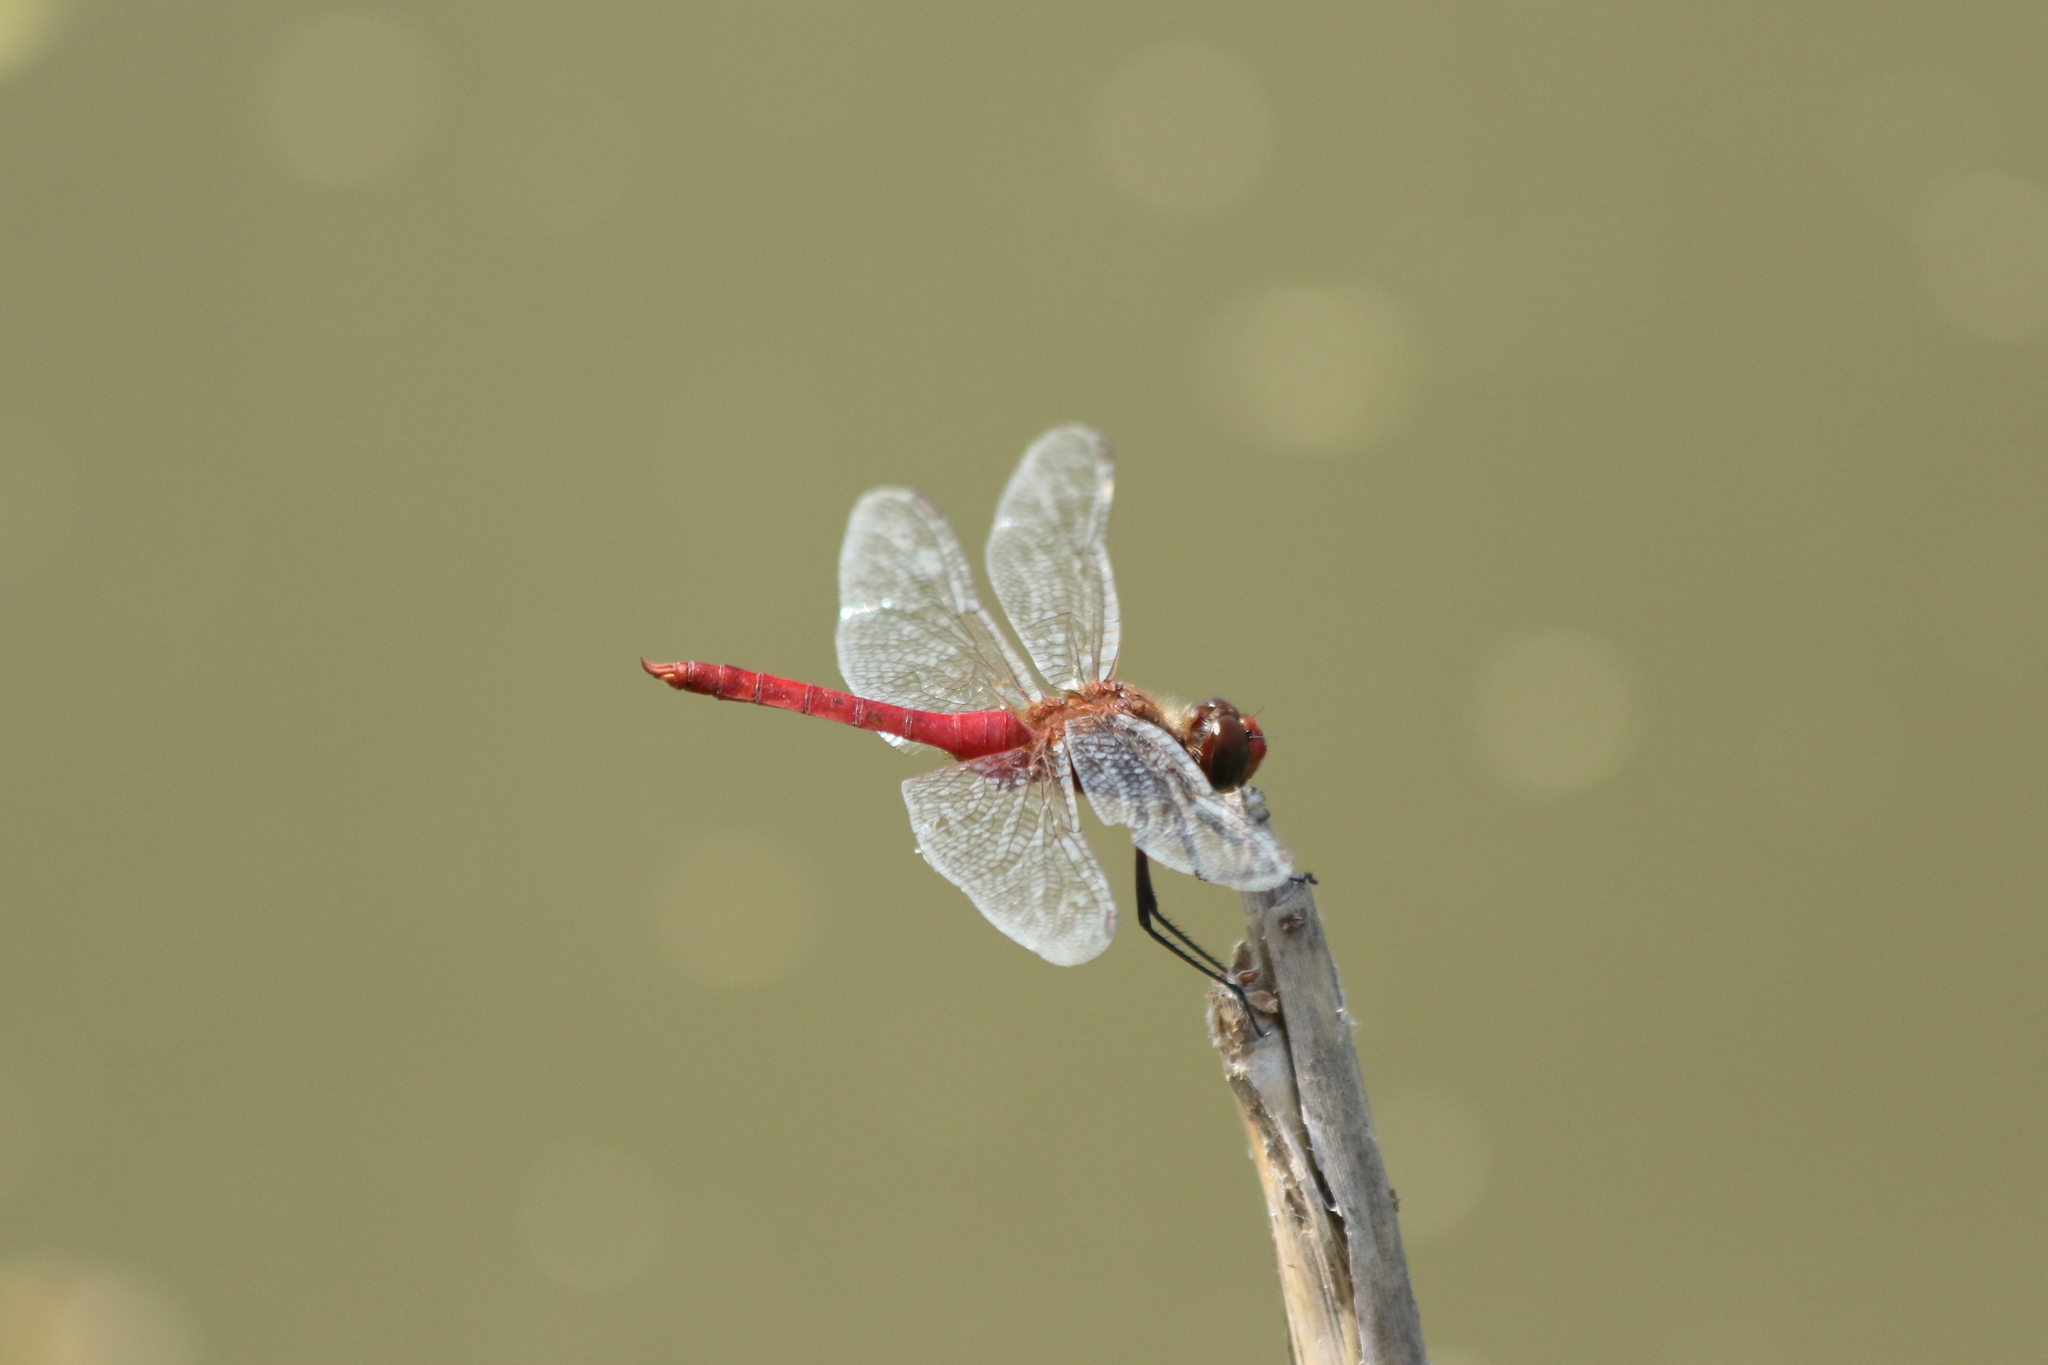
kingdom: Animalia
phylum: Arthropoda
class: Insecta
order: Odonata
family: Libellulidae
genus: Brachymesia
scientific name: Brachymesia furcata
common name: Red-taled pennant
